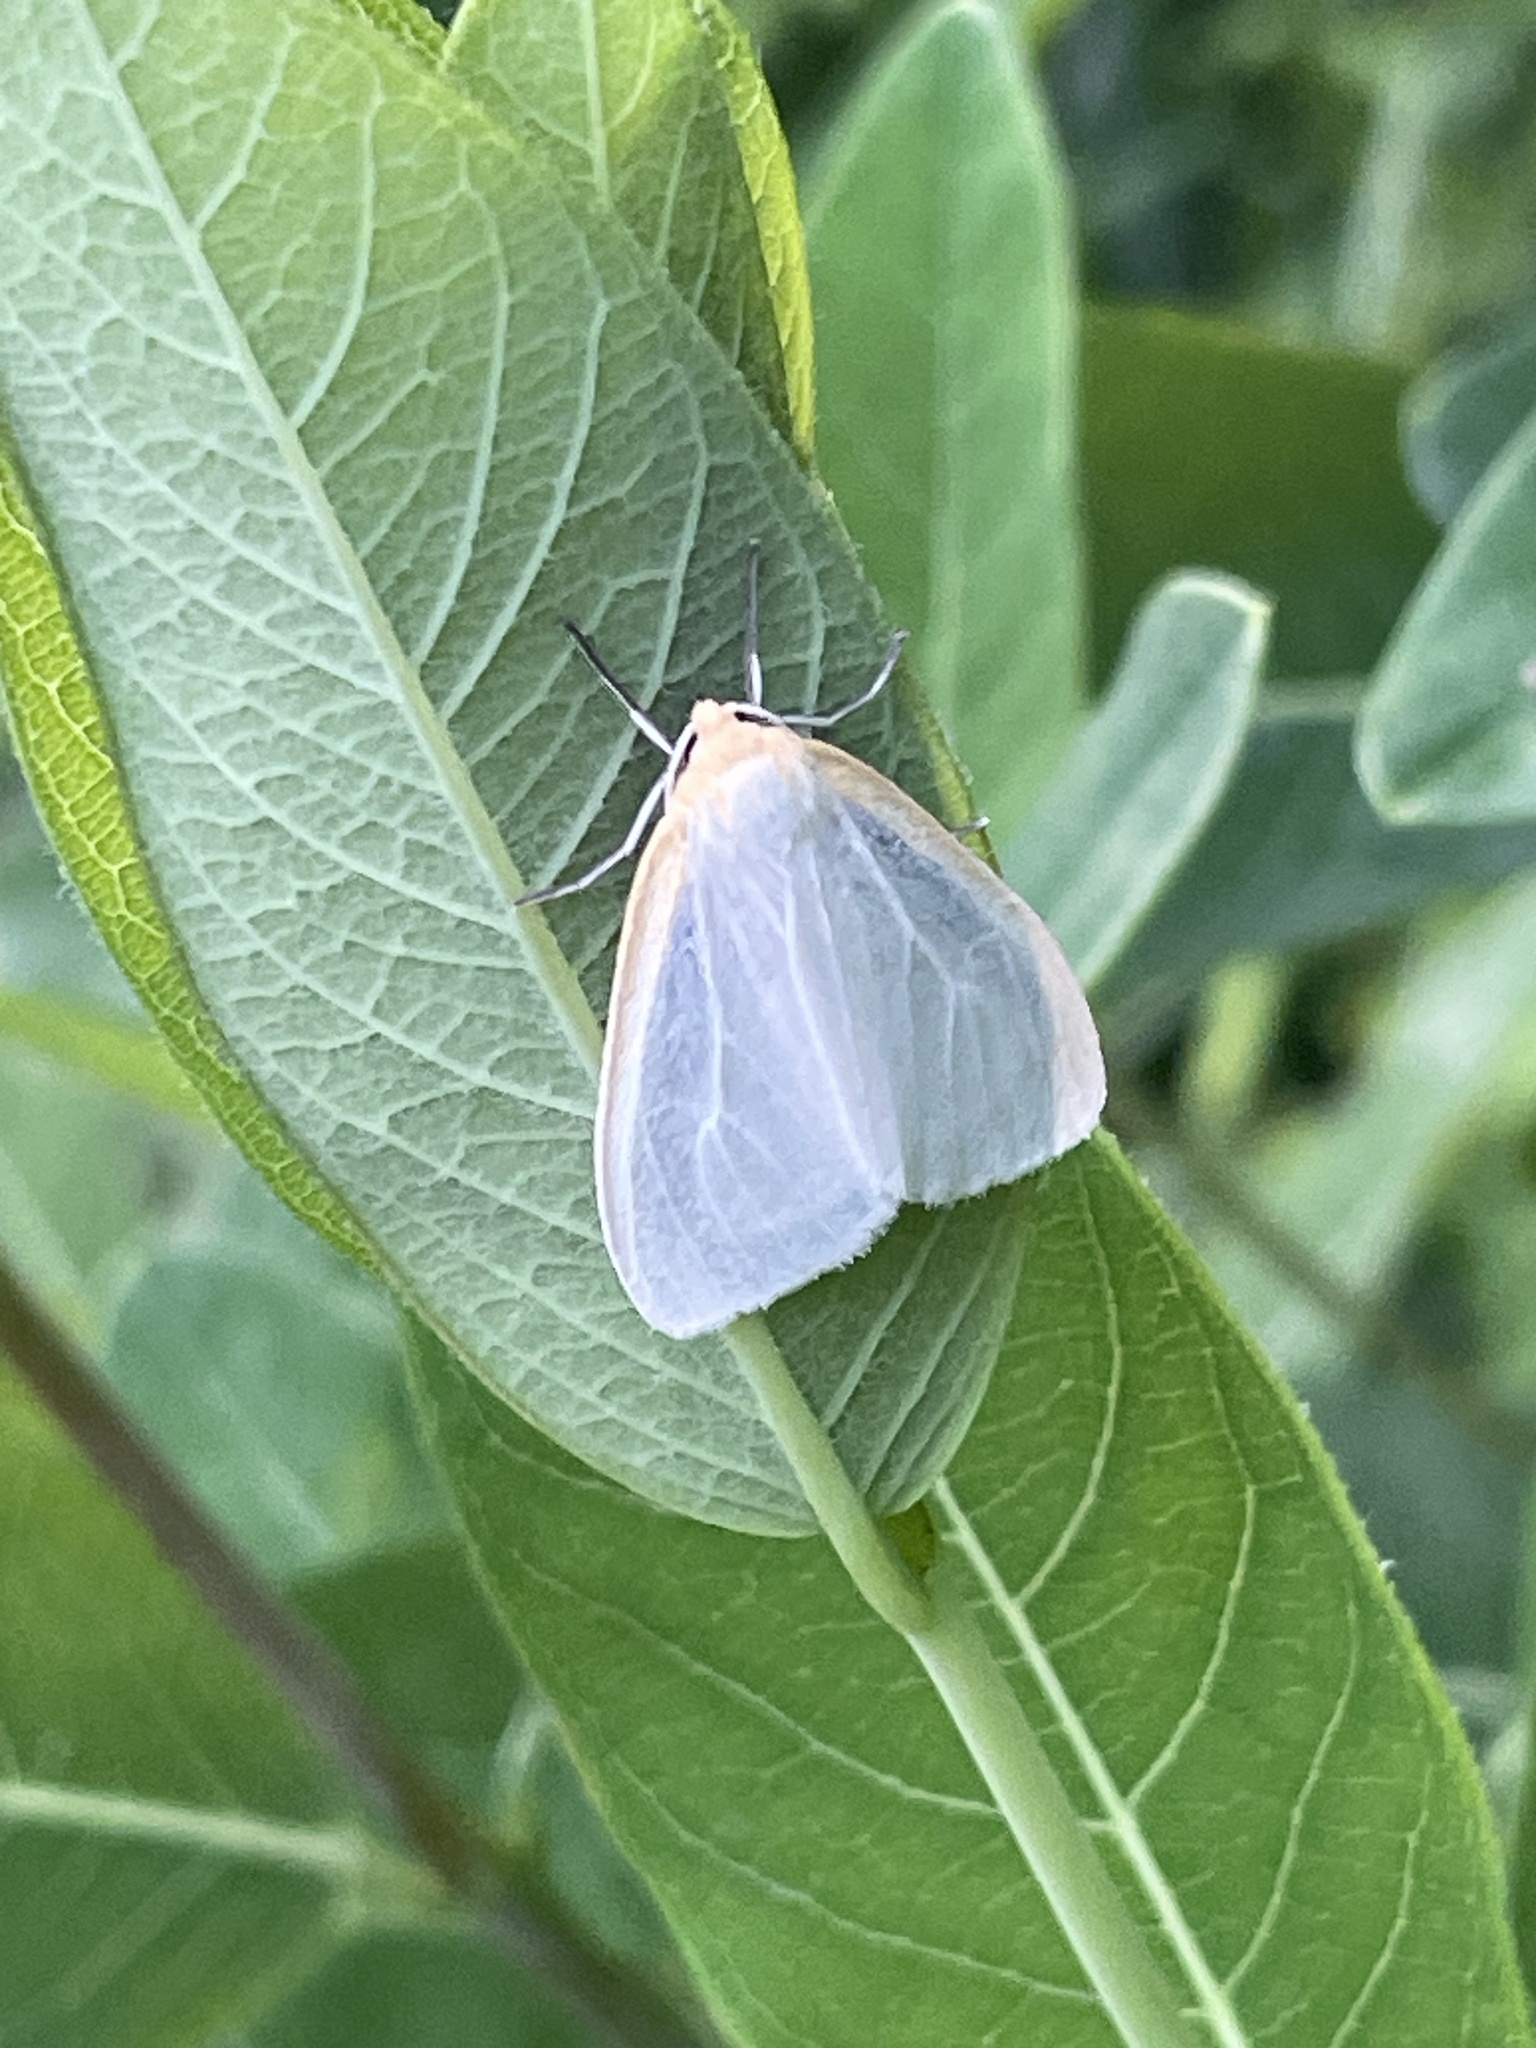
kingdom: Animalia
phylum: Arthropoda
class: Insecta
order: Lepidoptera
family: Erebidae
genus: Cycnia
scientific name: Cycnia tenera
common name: Delicate cycnia moth
